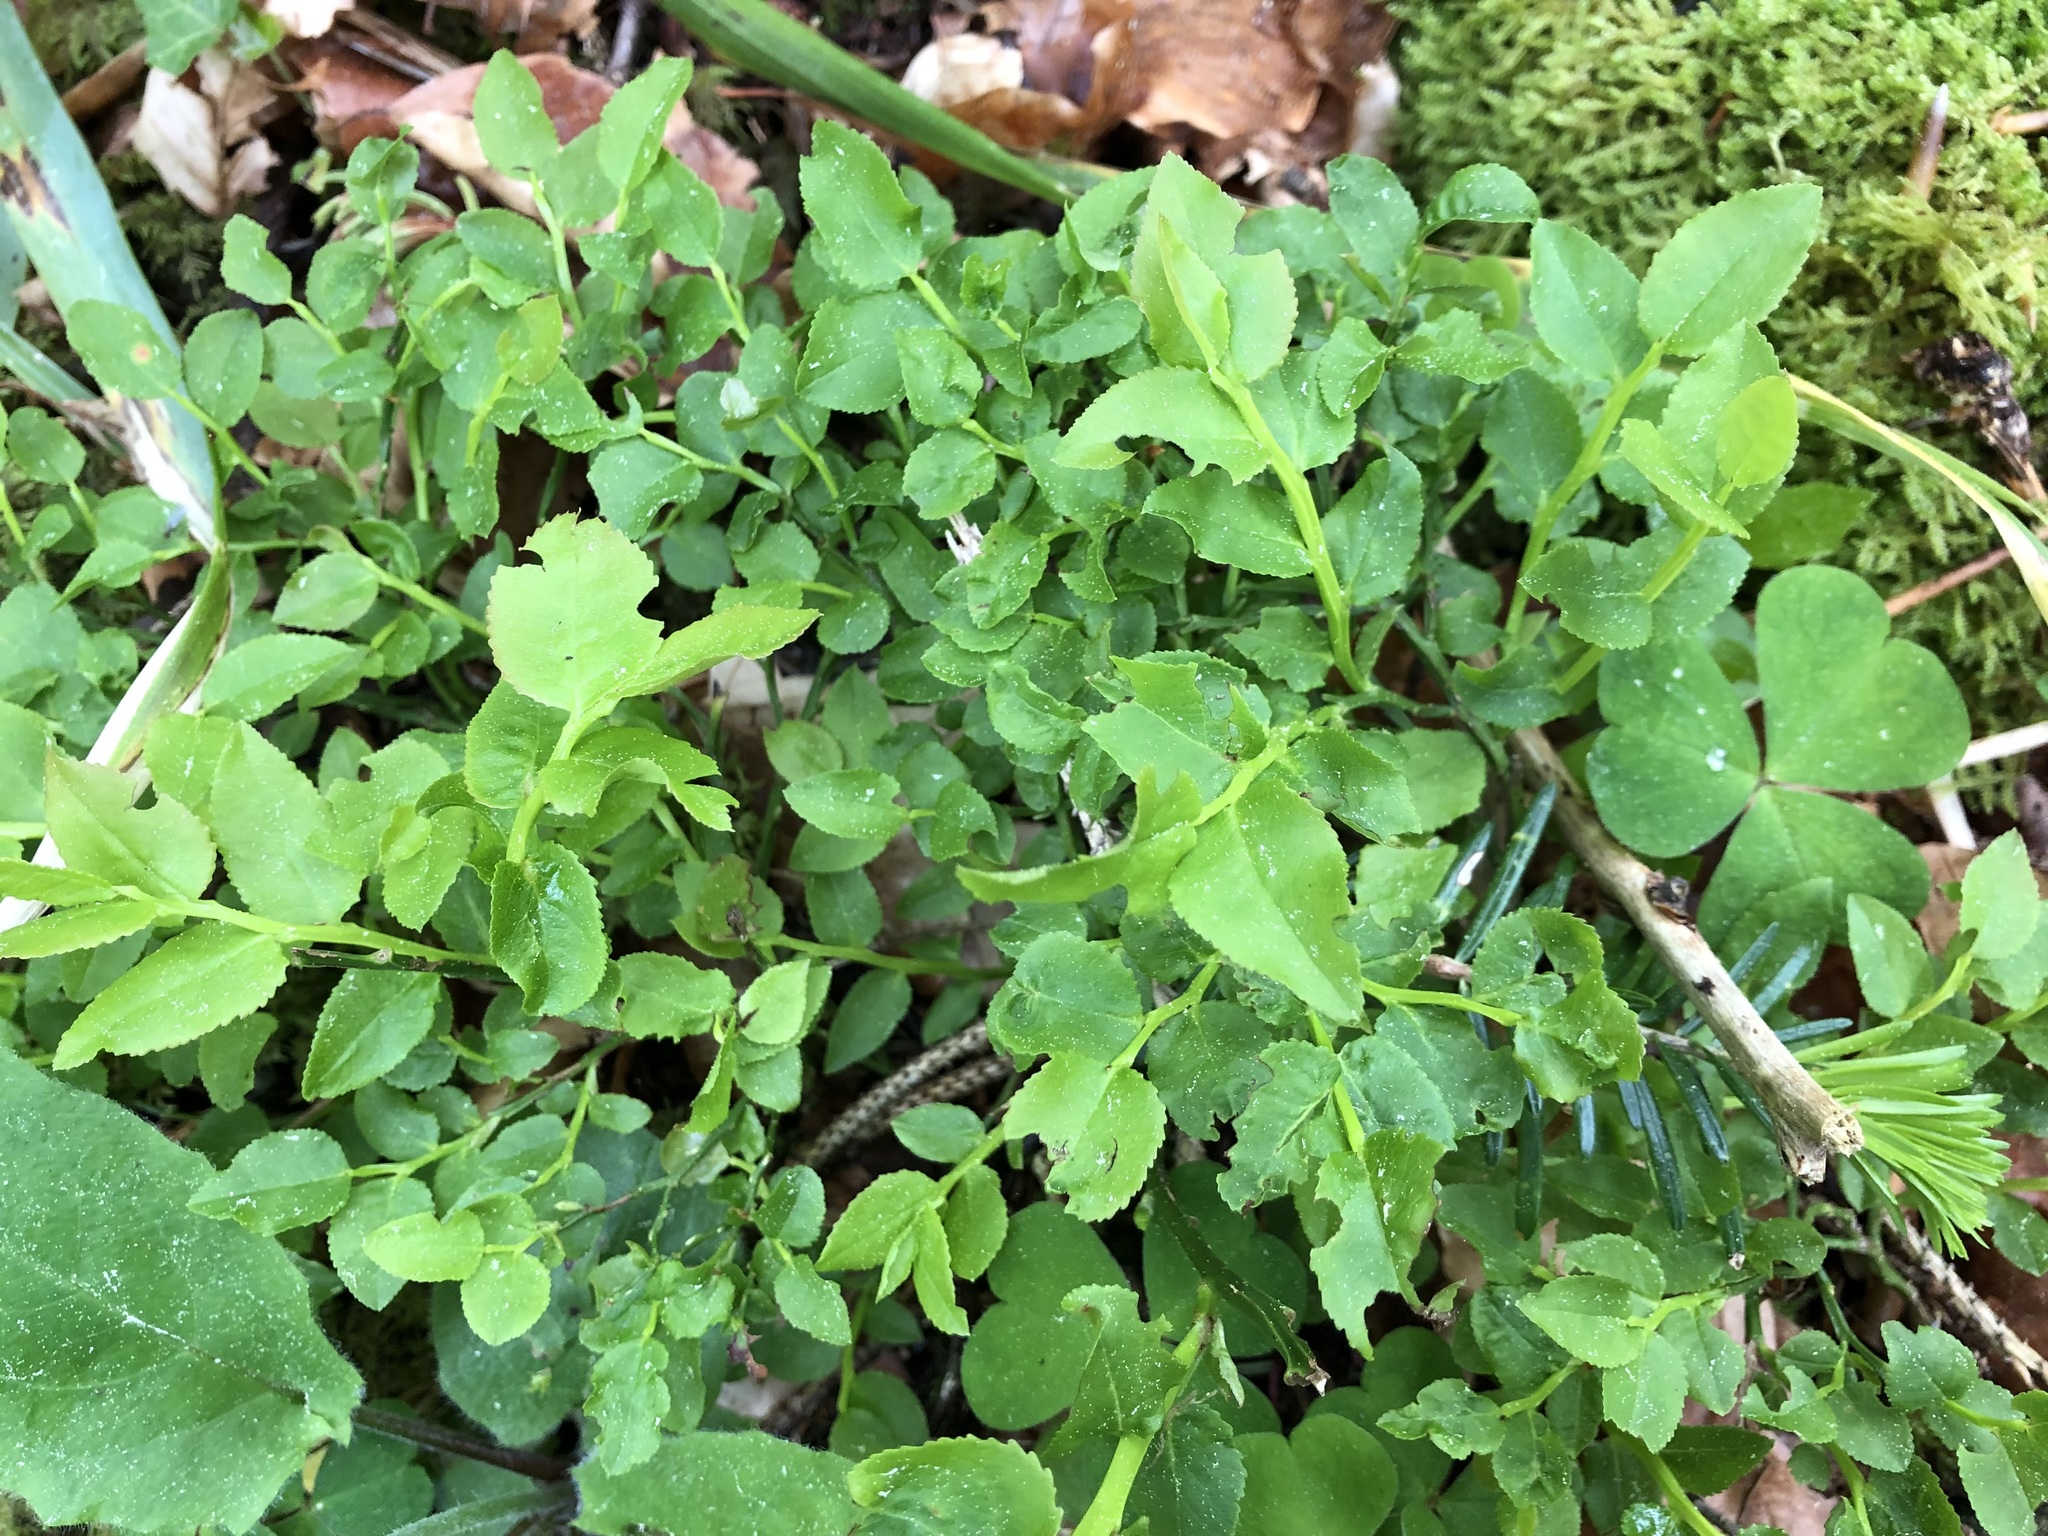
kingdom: Plantae
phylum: Tracheophyta
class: Magnoliopsida
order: Ericales
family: Ericaceae
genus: Vaccinium
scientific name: Vaccinium myrtillus
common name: Bilberry
